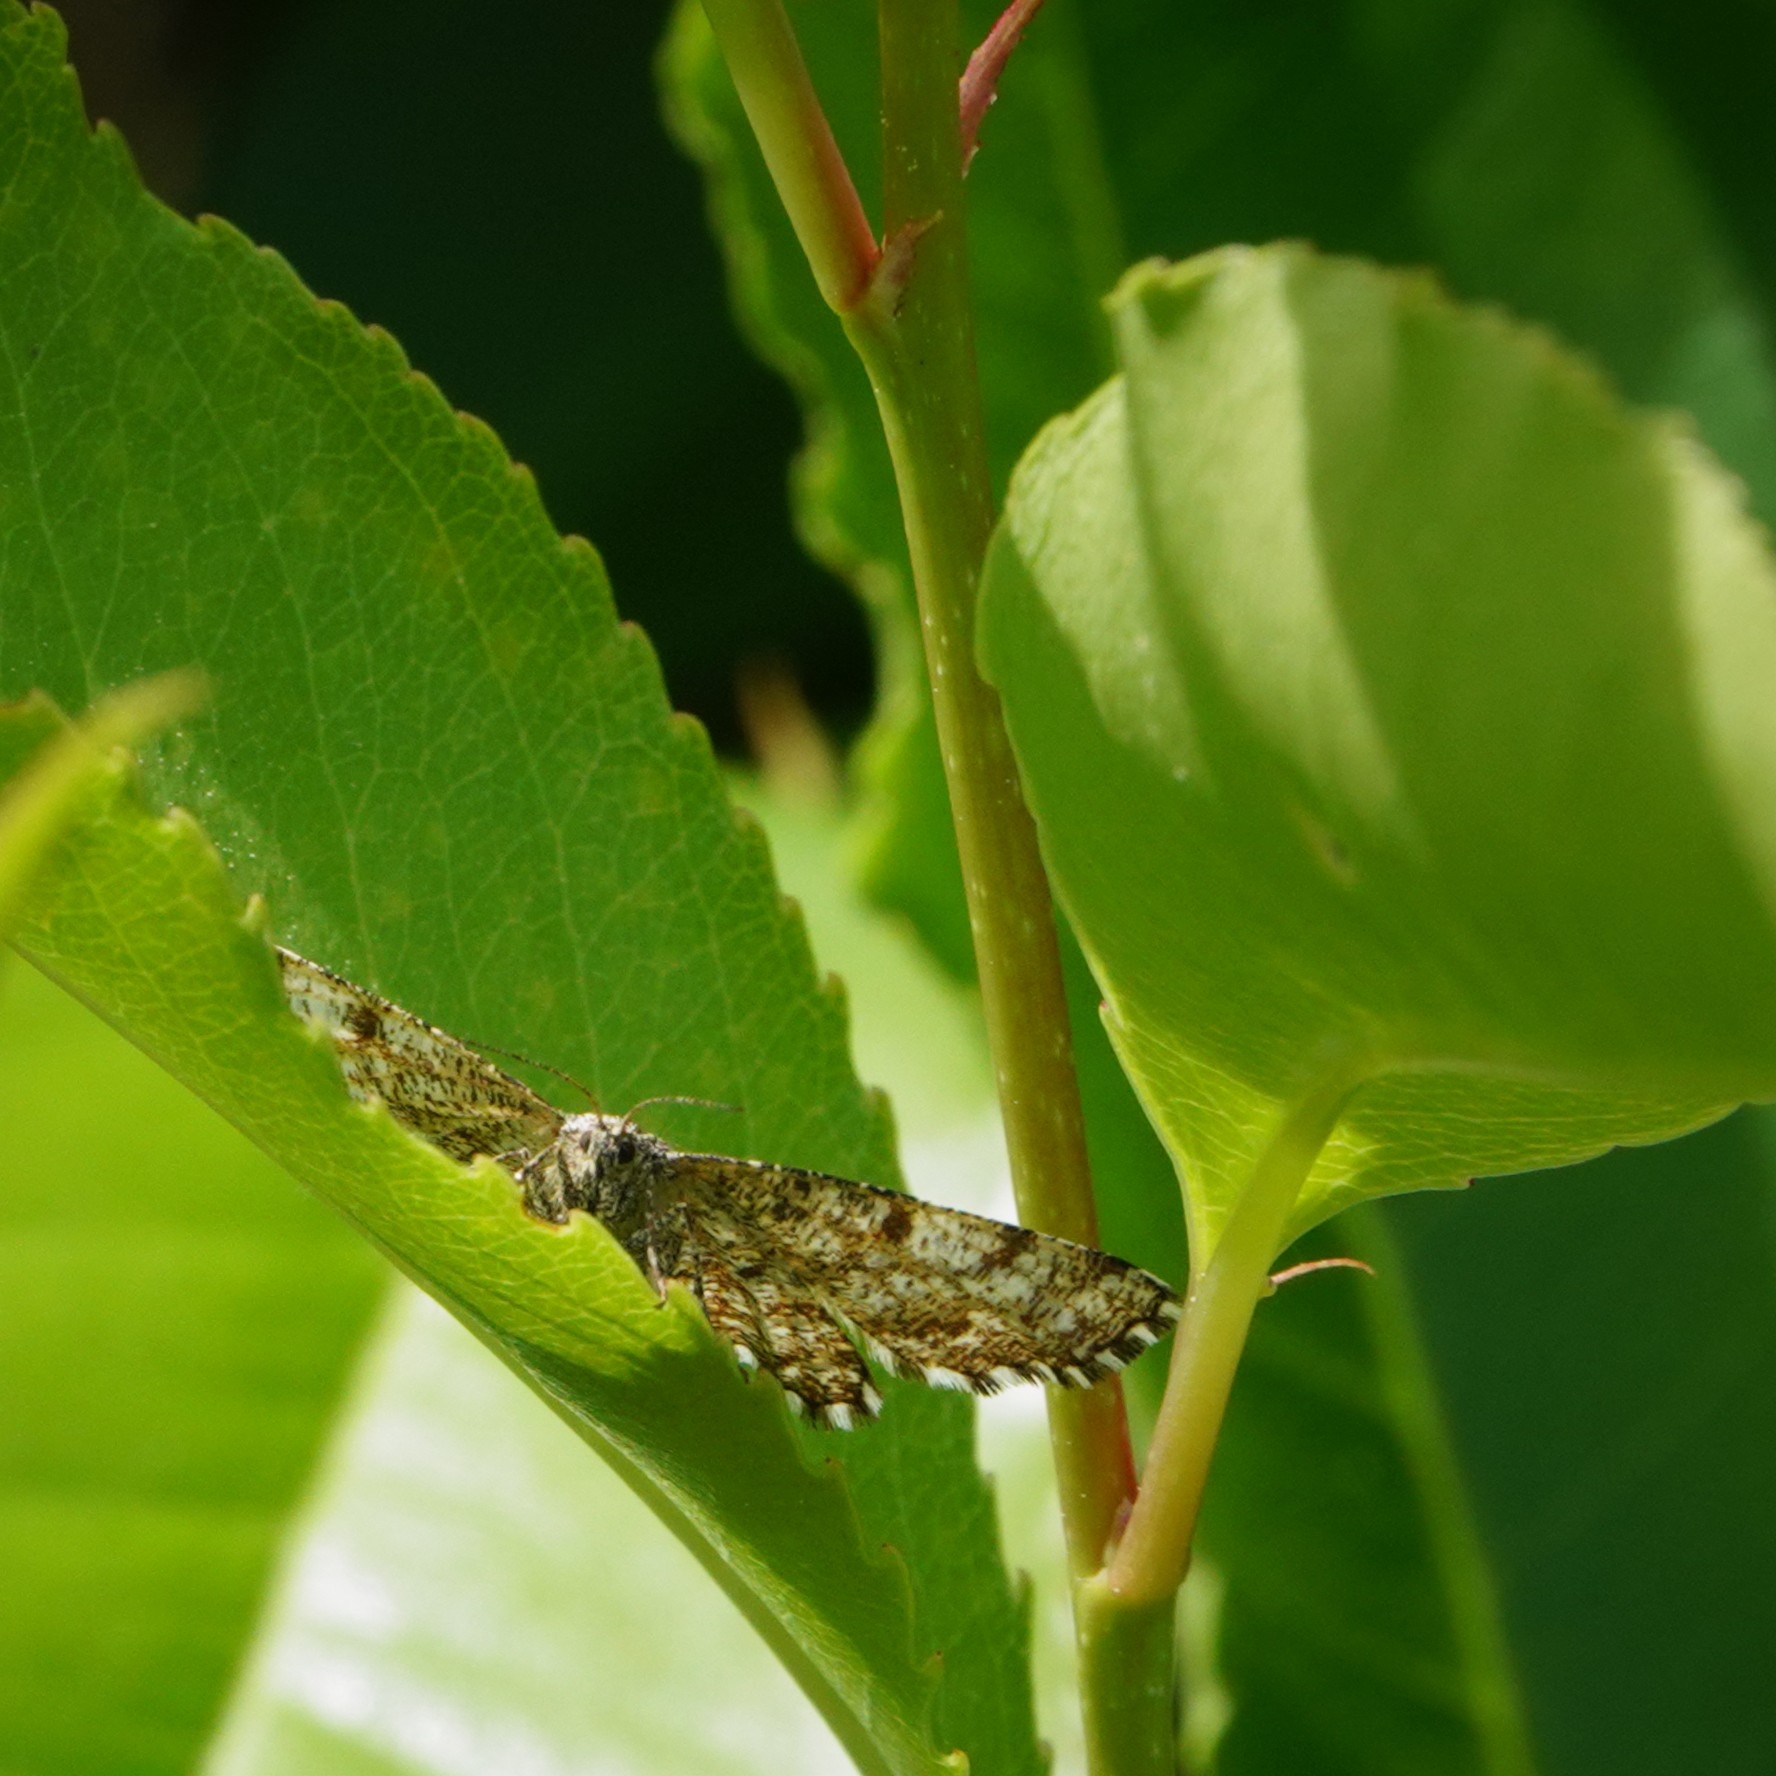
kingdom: Animalia
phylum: Arthropoda
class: Insecta
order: Lepidoptera
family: Geometridae
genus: Ematurga
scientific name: Ematurga atomaria
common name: Common heath
